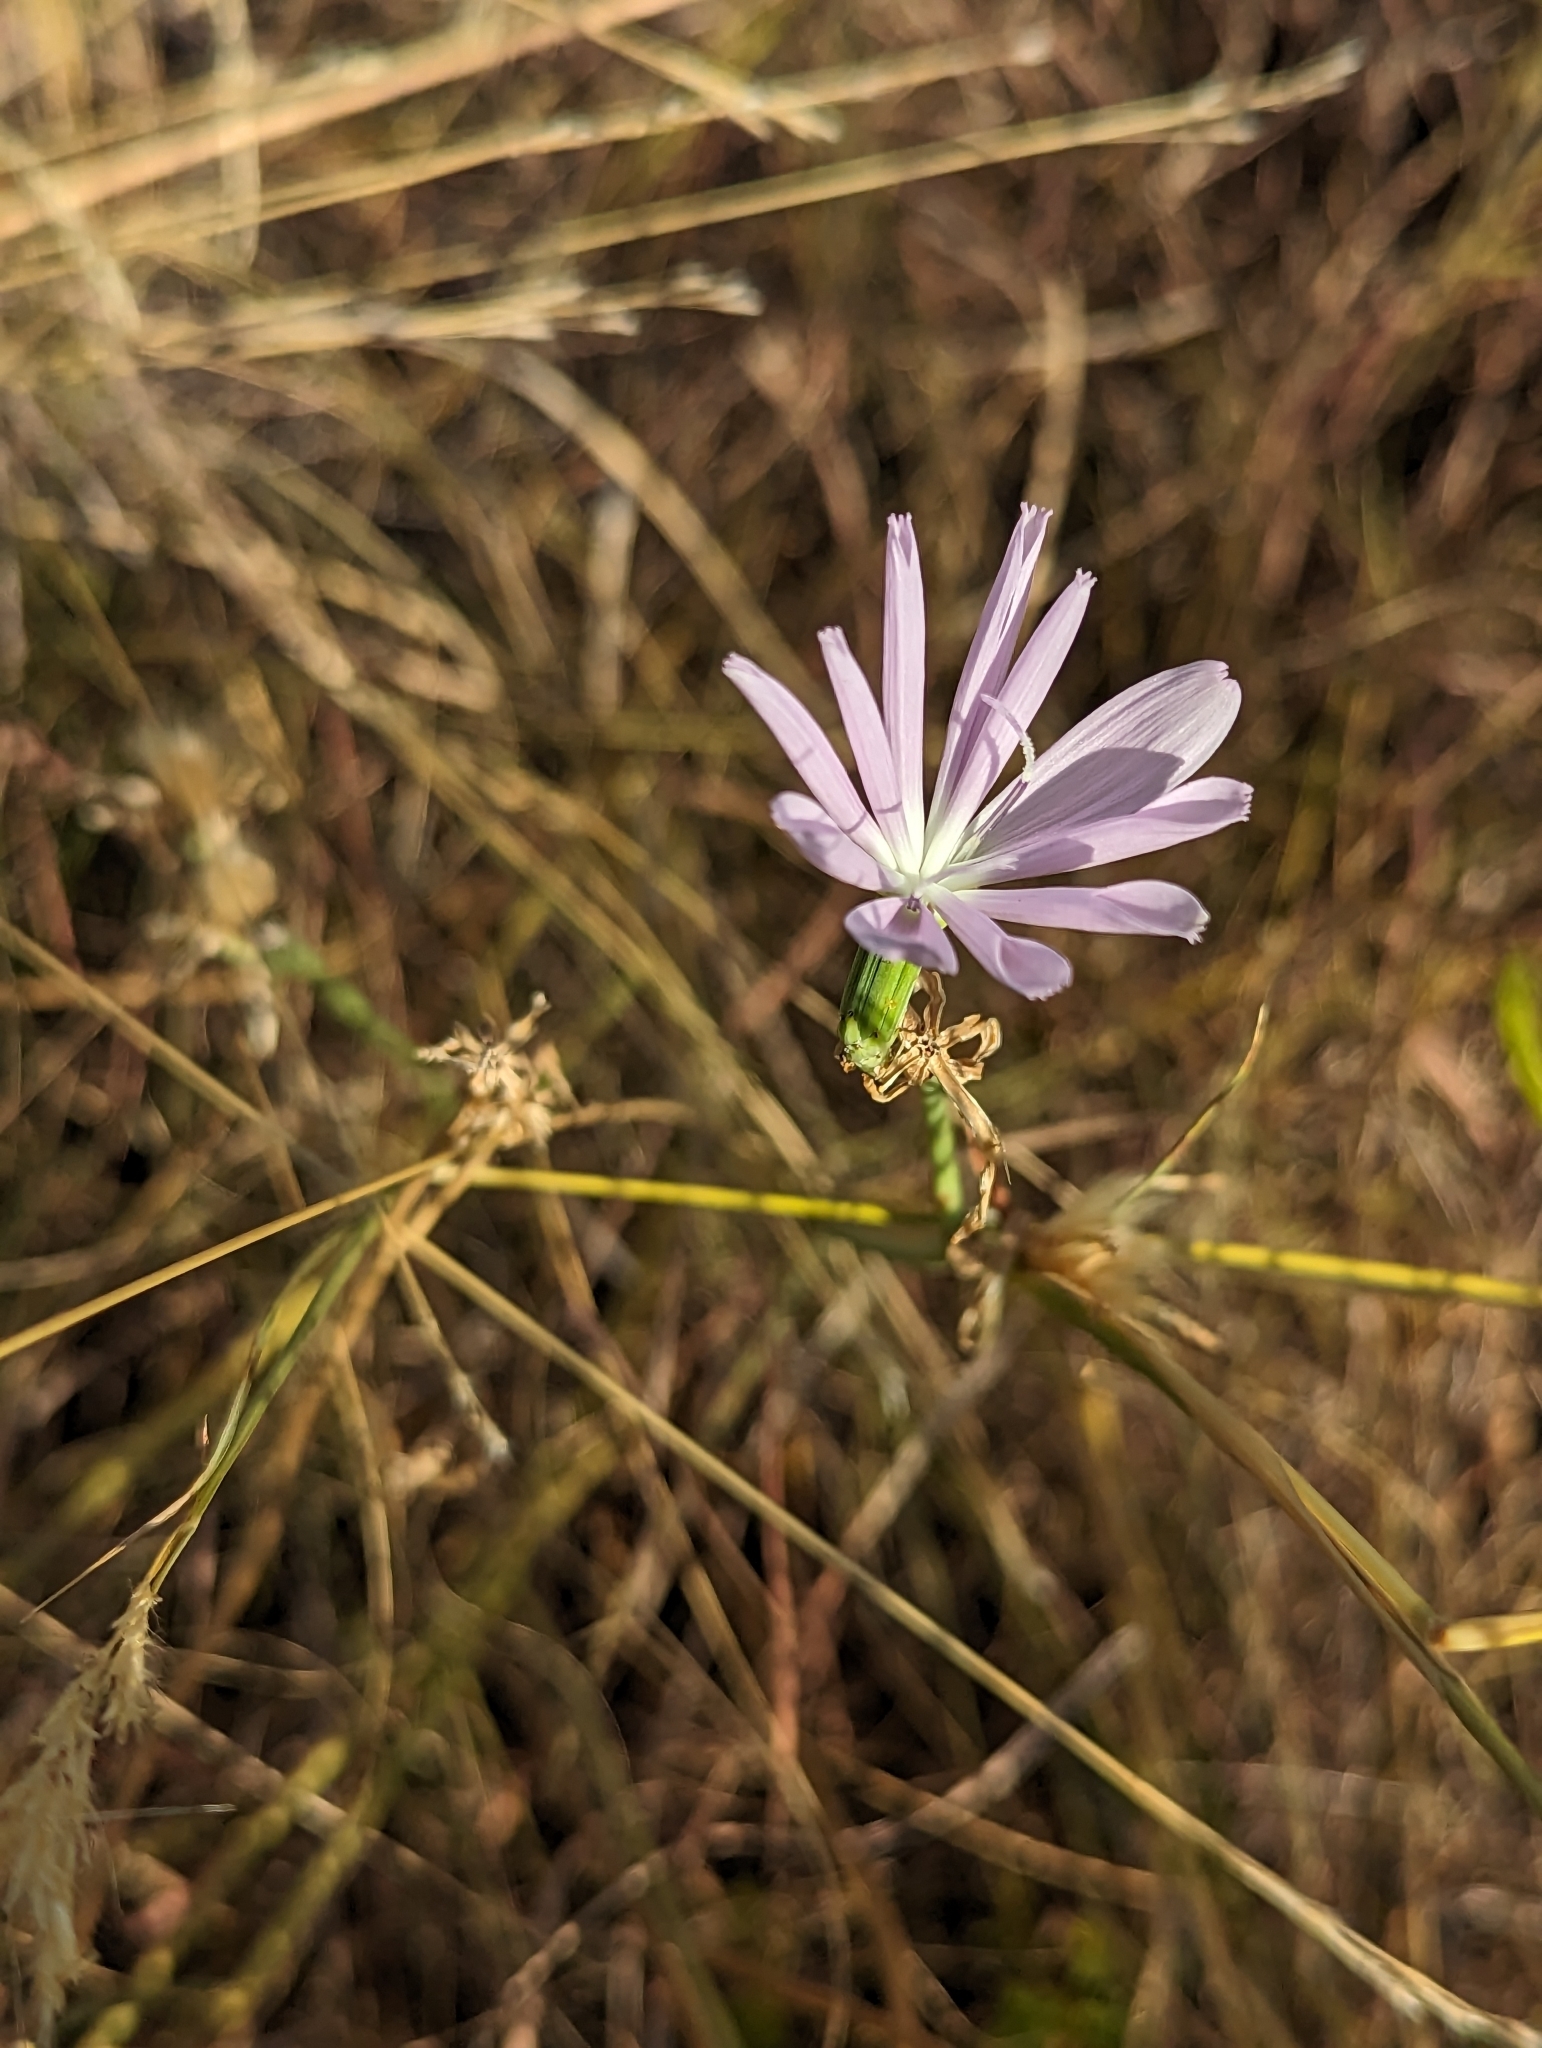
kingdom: Plantae
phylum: Tracheophyta
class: Magnoliopsida
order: Asterales
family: Asteraceae
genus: Lygodesmia
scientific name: Lygodesmia texana
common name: Texas skeleton-plant
